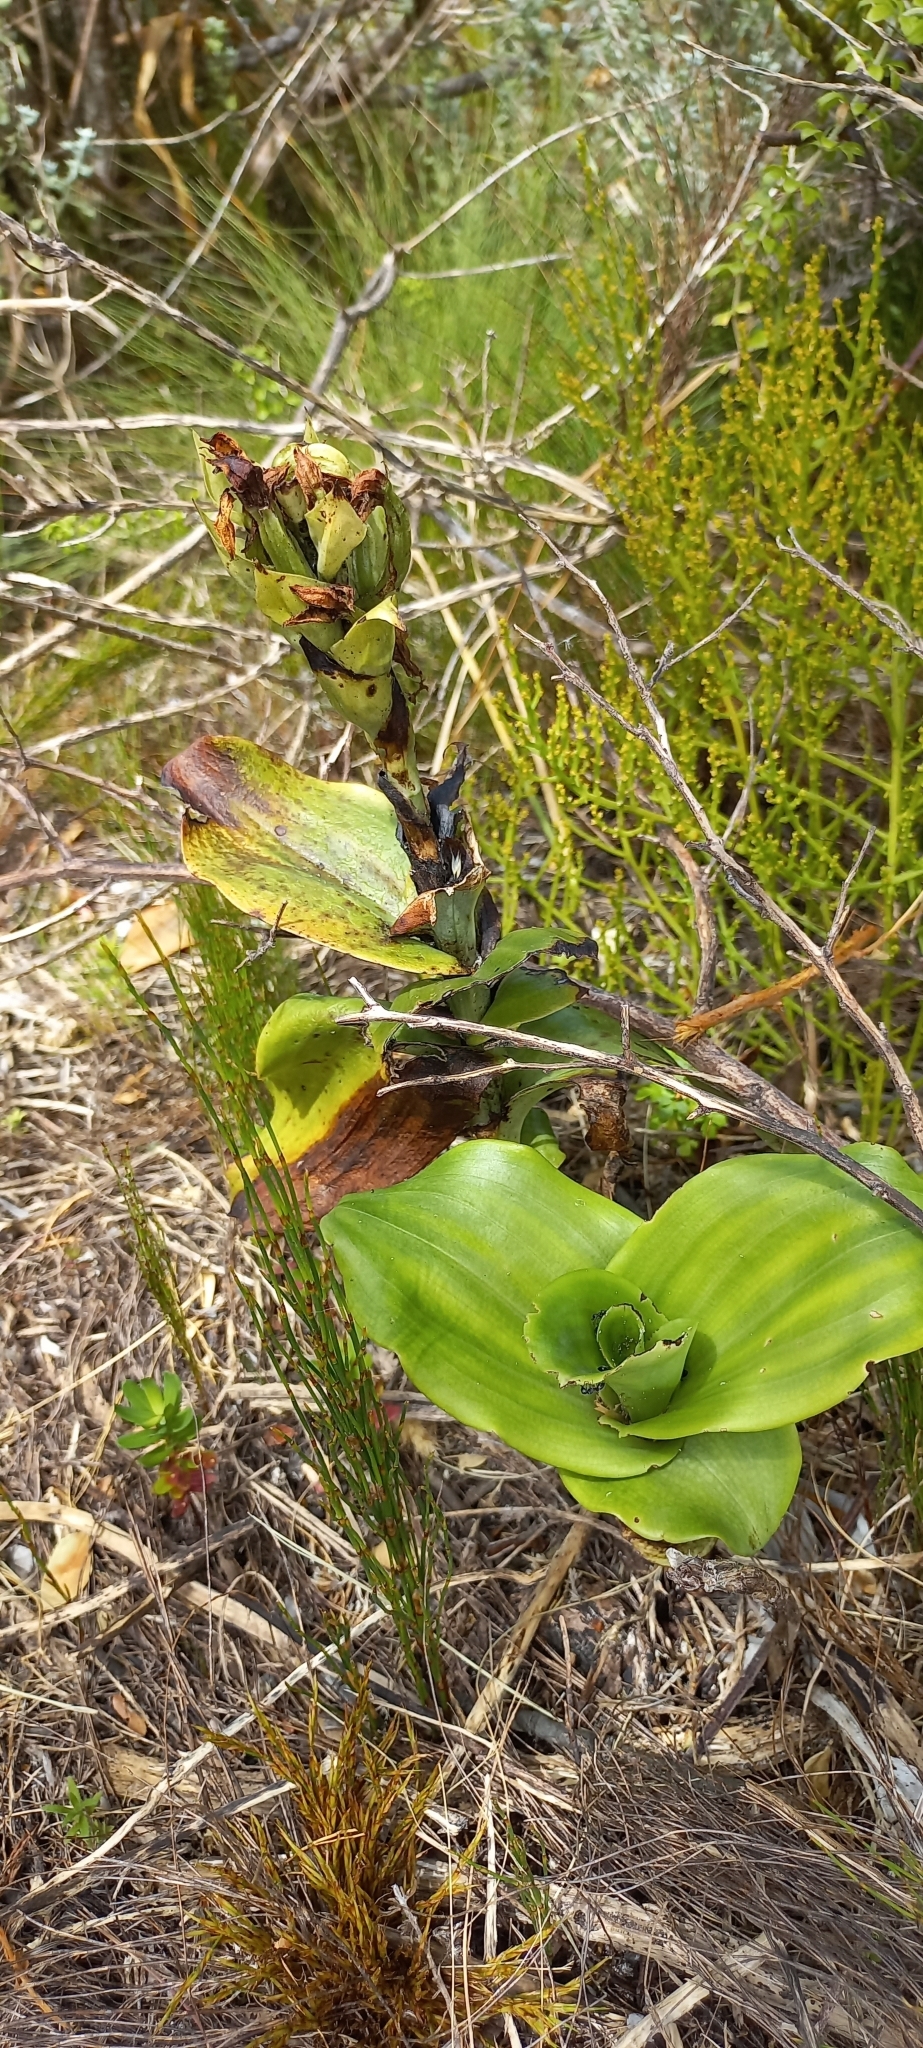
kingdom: Plantae
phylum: Tracheophyta
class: Liliopsida
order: Asparagales
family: Orchidaceae
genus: Bonatea
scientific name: Bonatea speciosa
